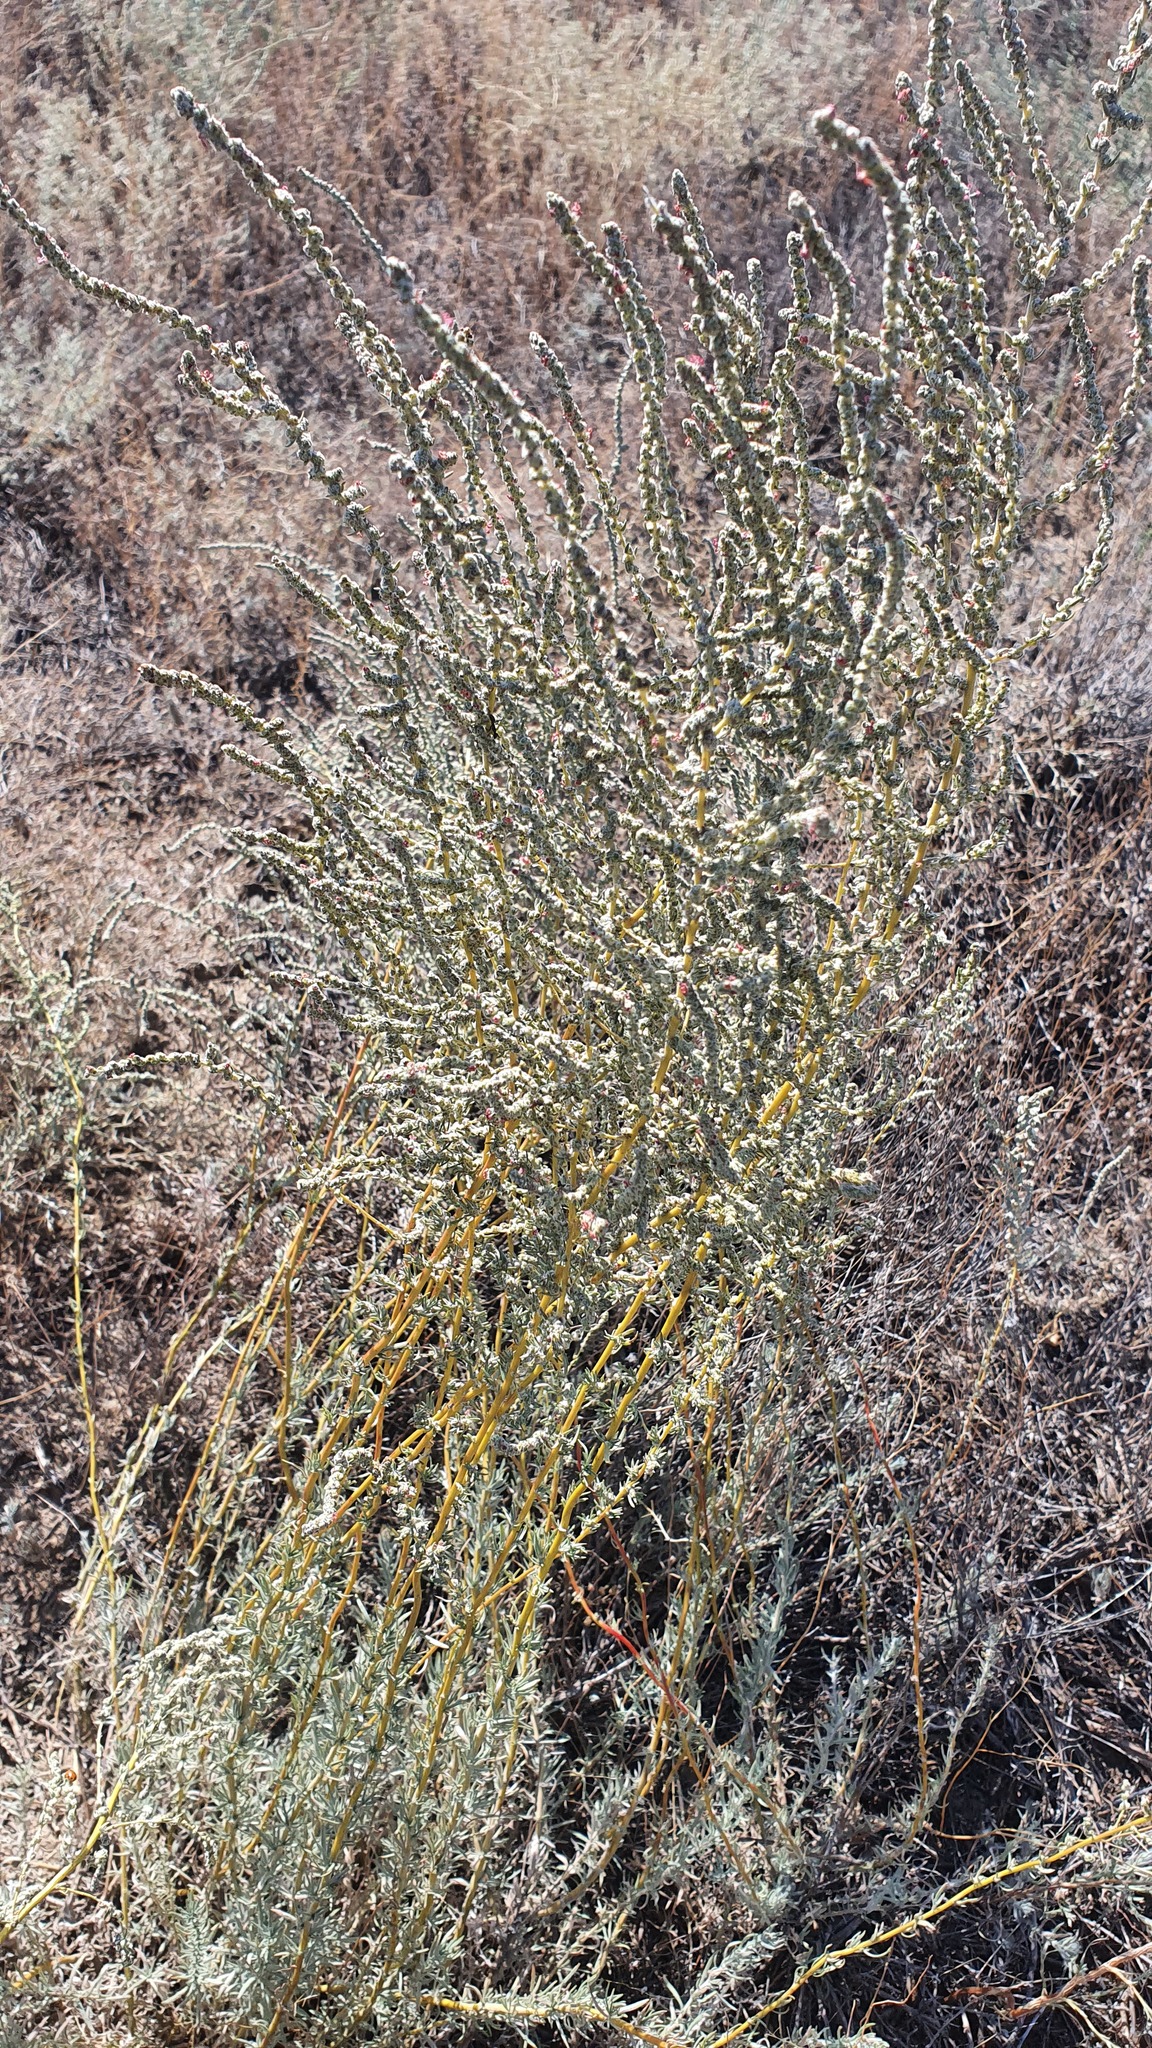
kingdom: Plantae
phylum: Tracheophyta
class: Magnoliopsida
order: Caryophyllales
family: Amaranthaceae
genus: Bassia
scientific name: Bassia prostrata
